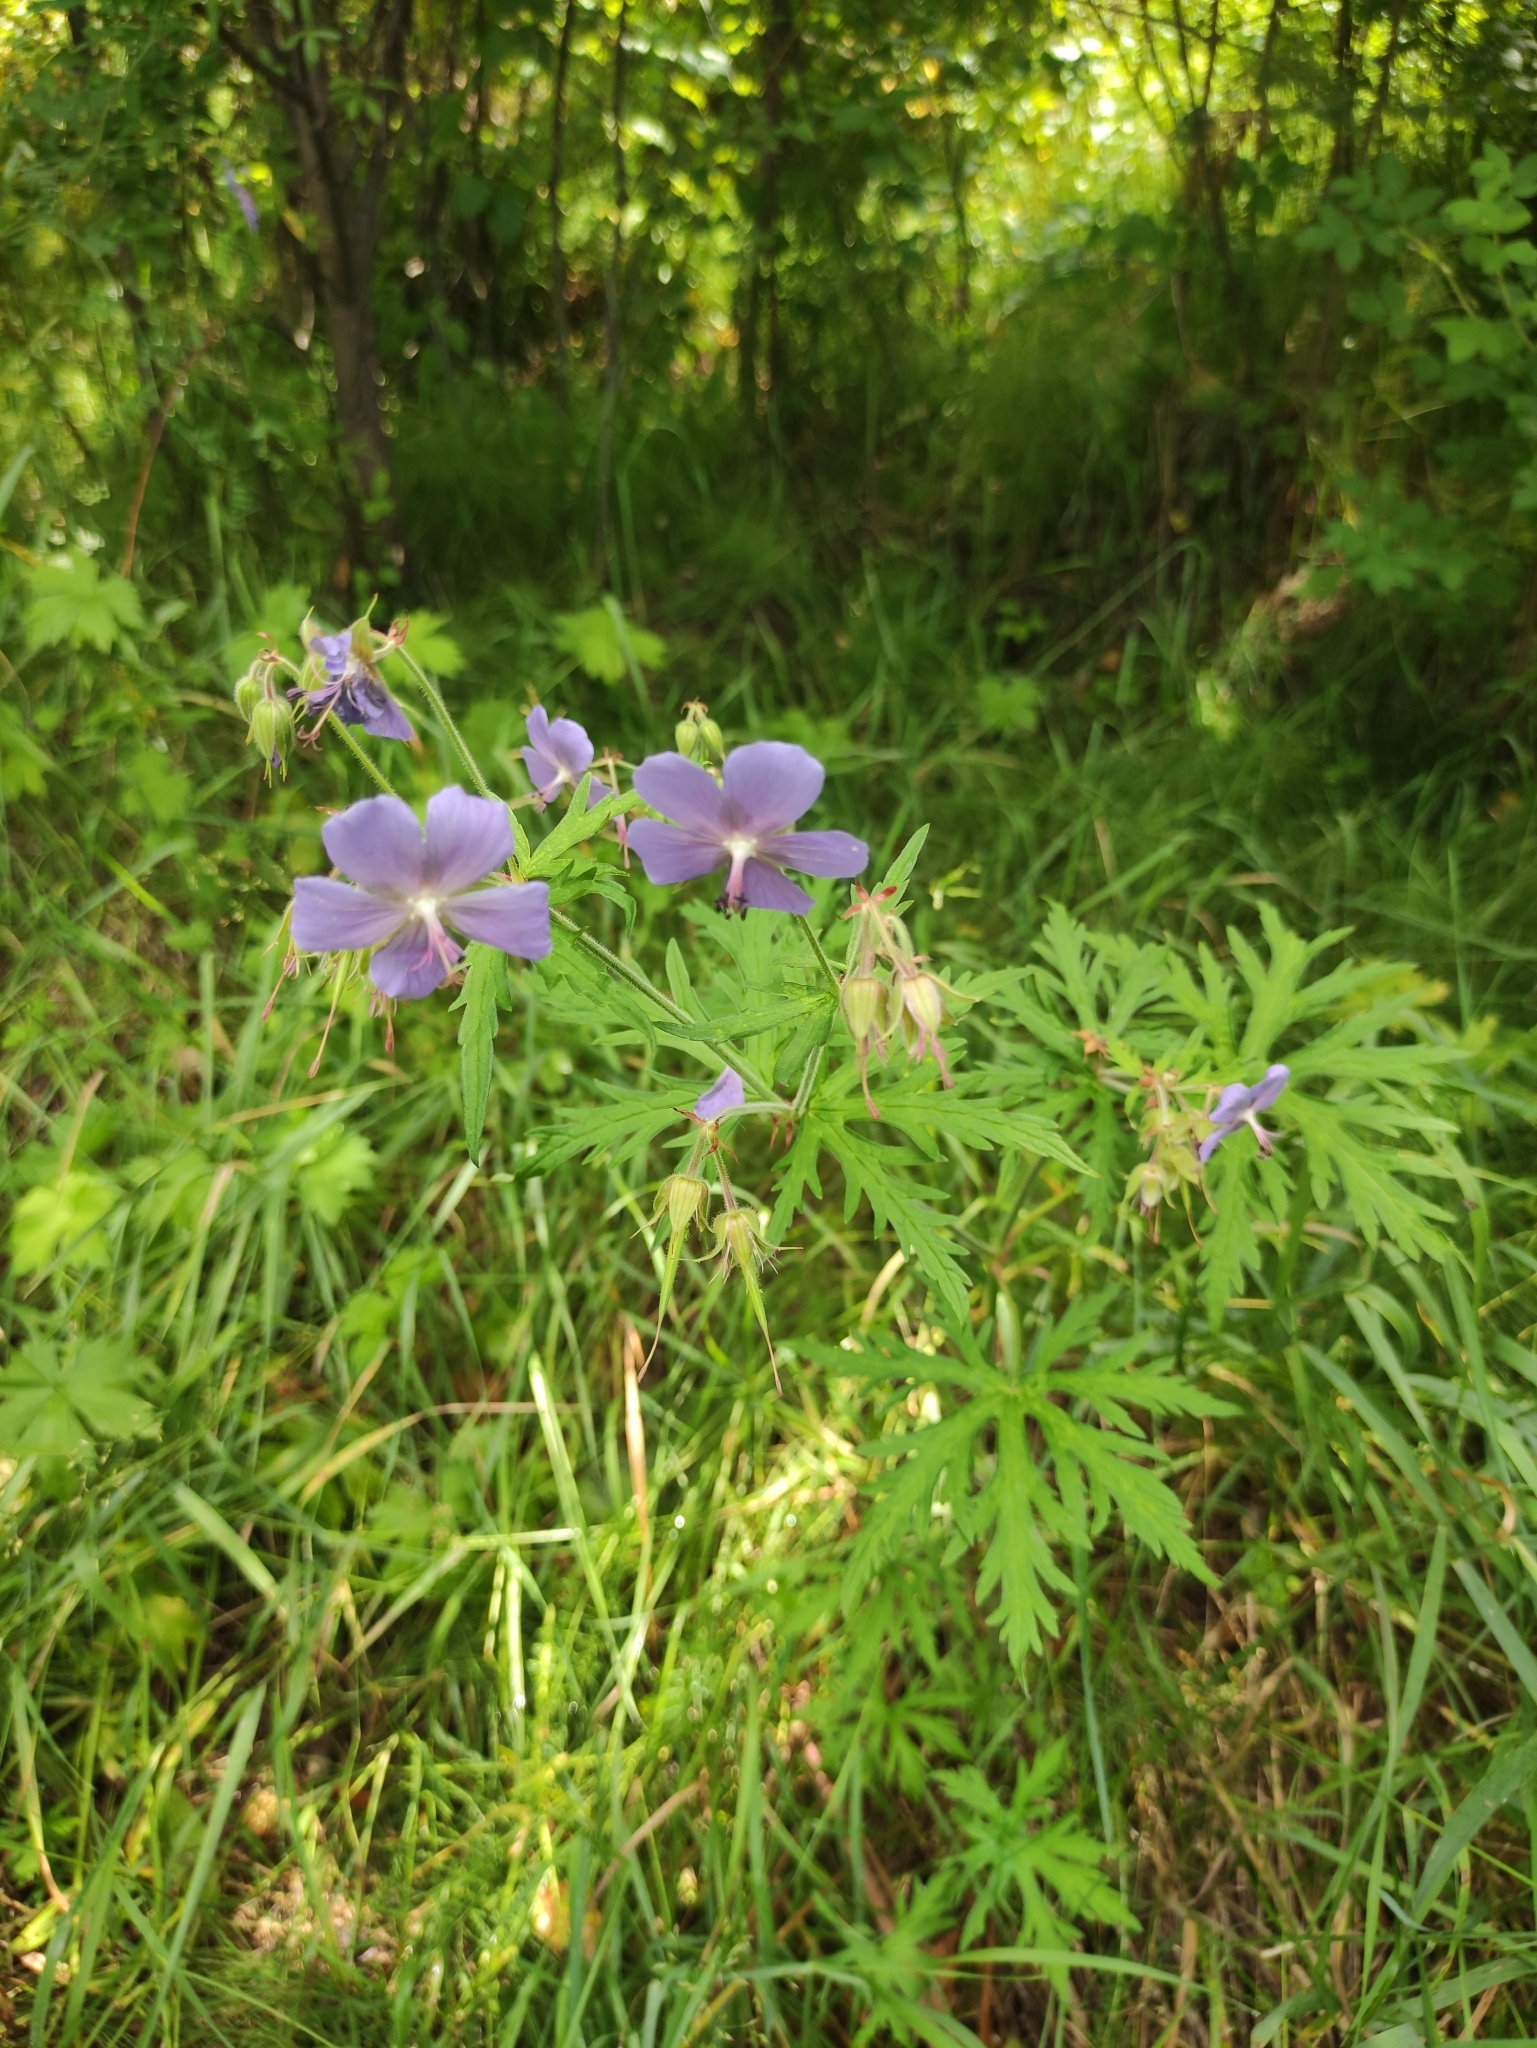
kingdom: Plantae
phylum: Tracheophyta
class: Magnoliopsida
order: Geraniales
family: Geraniaceae
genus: Geranium
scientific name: Geranium pratense
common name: Meadow crane's-bill
